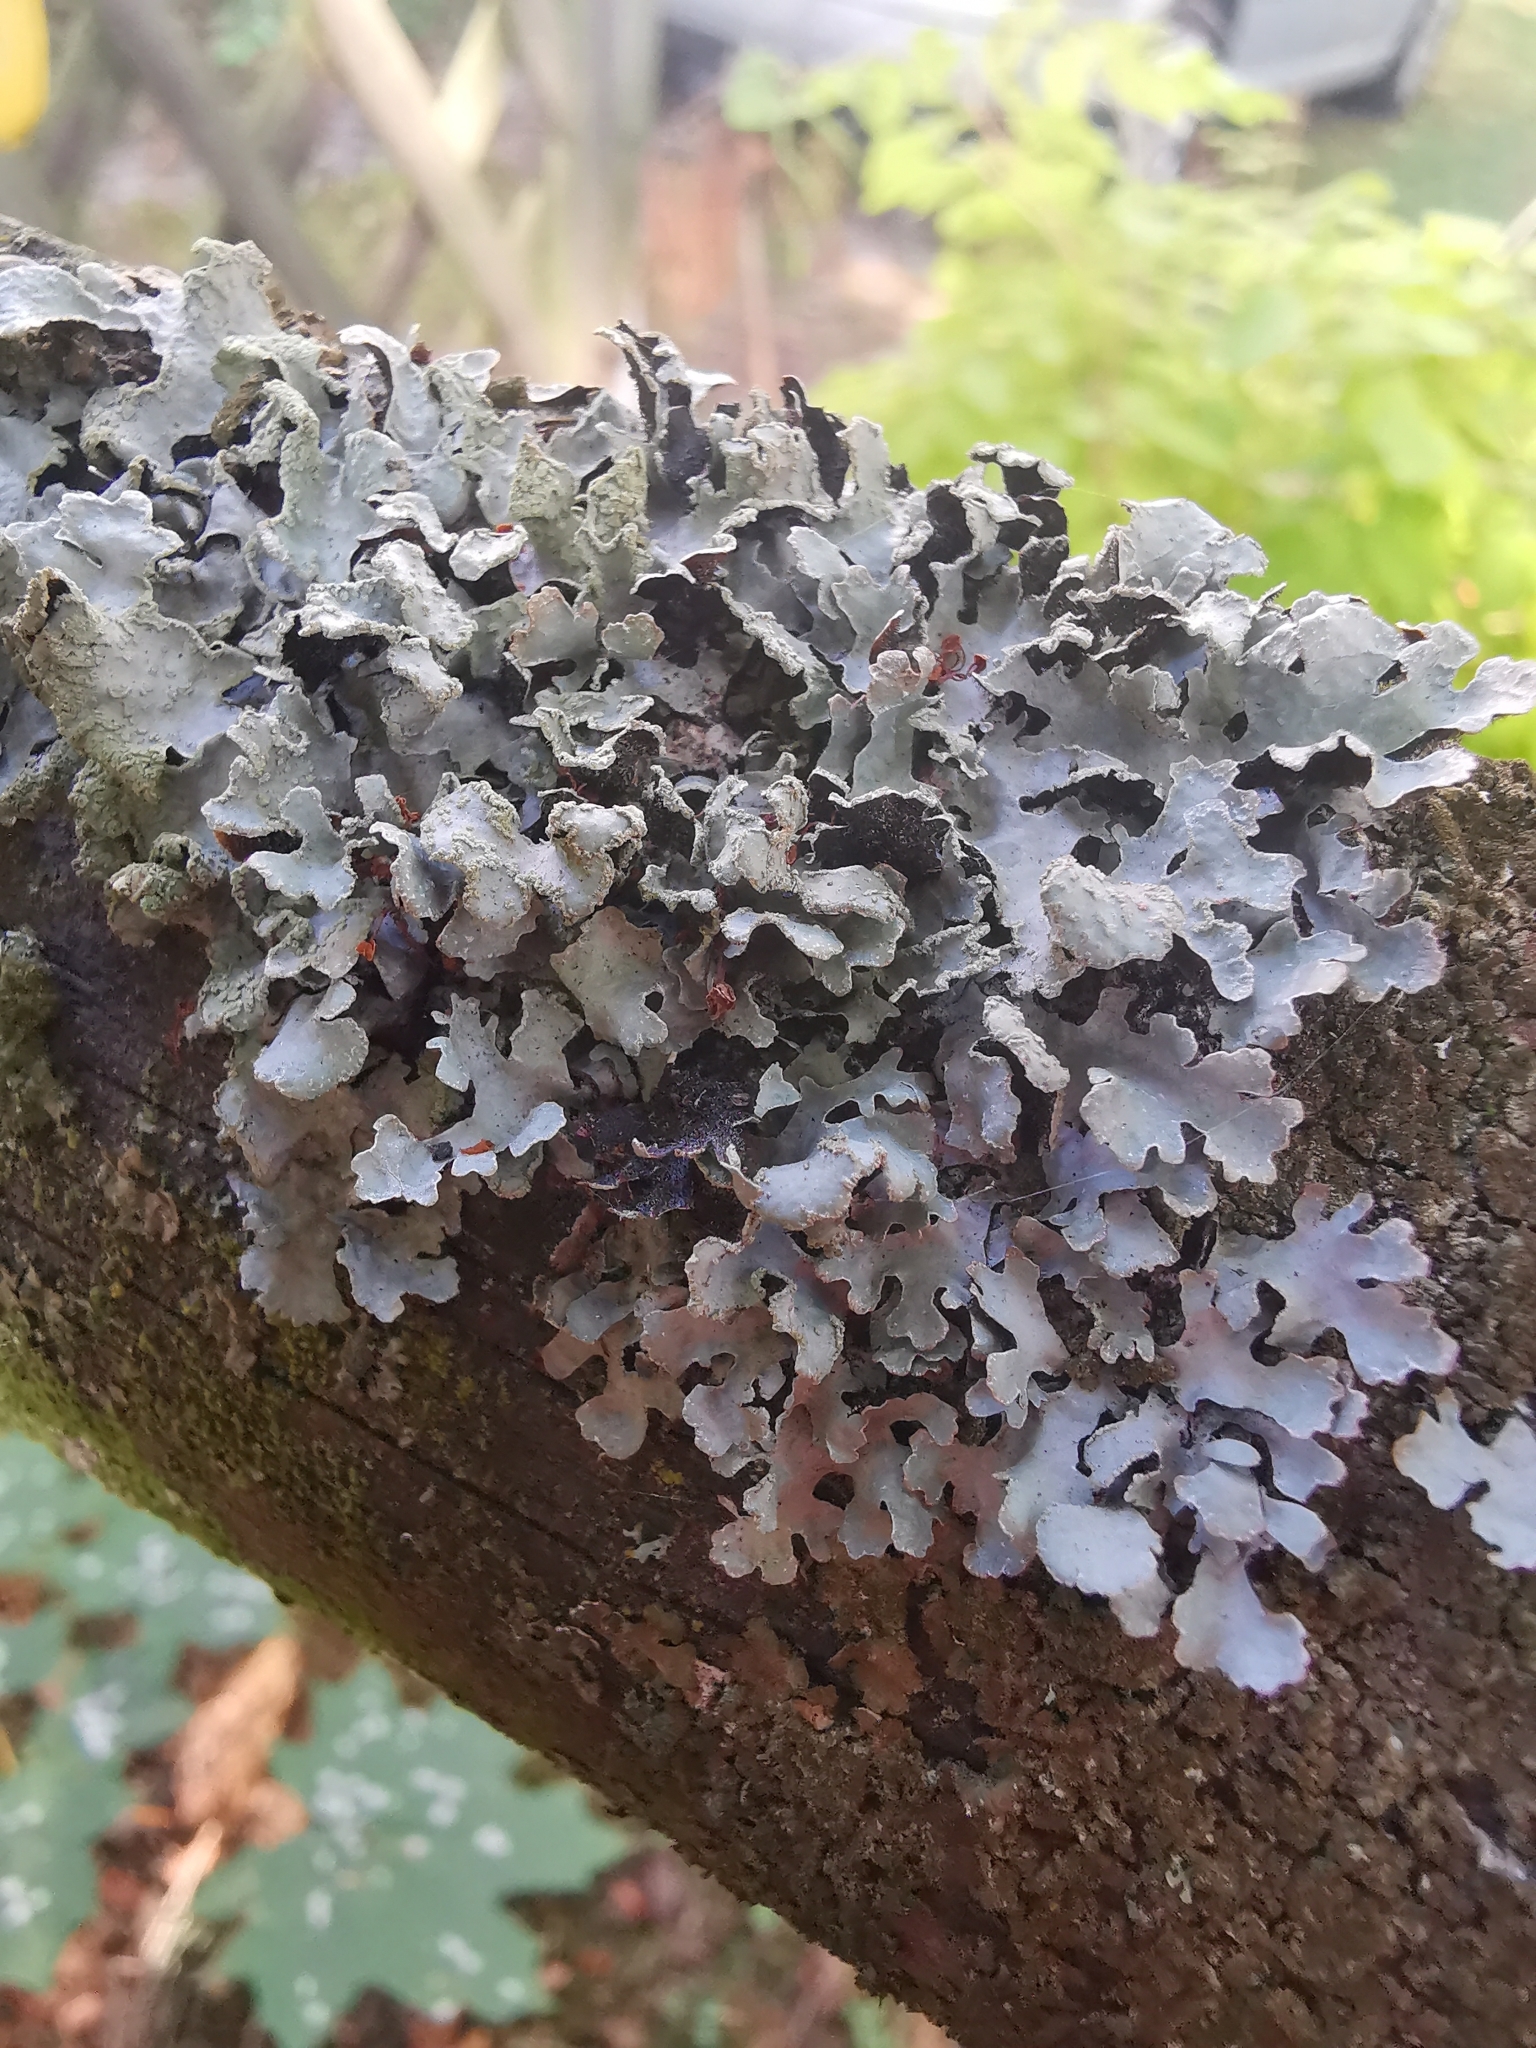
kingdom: Fungi
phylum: Ascomycota
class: Lecanoromycetes
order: Lecanorales
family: Parmeliaceae
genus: Parmelia
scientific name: Parmelia sulcata
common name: Netted shield lichen
